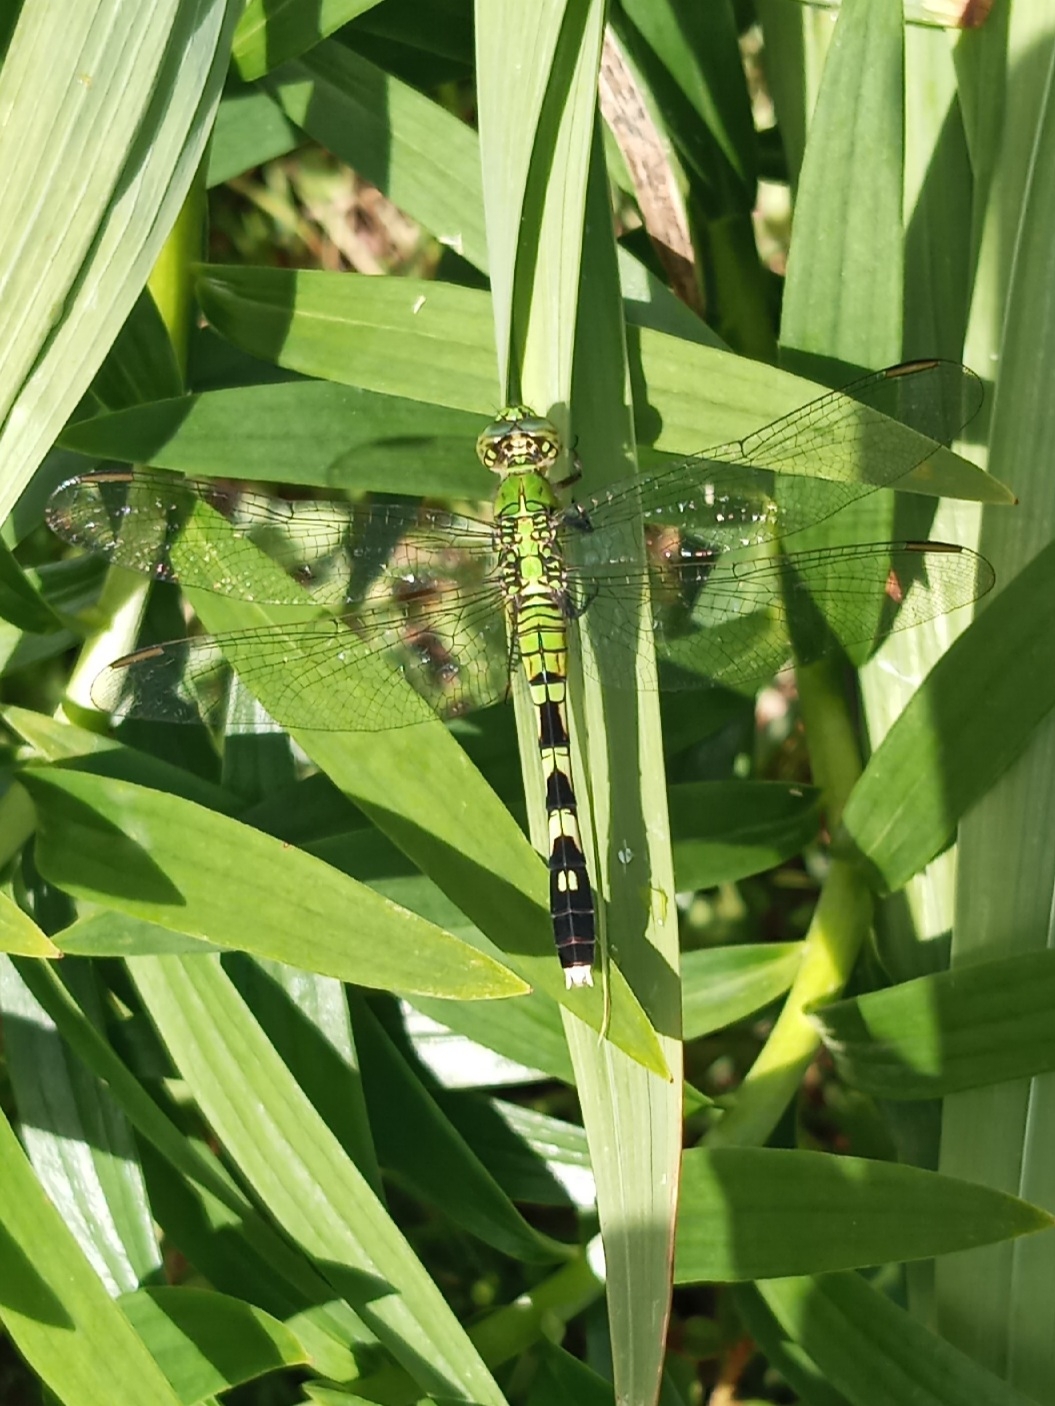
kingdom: Animalia
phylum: Arthropoda
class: Insecta
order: Odonata
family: Libellulidae
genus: Erythemis
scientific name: Erythemis simplicicollis
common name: Eastern pondhawk
